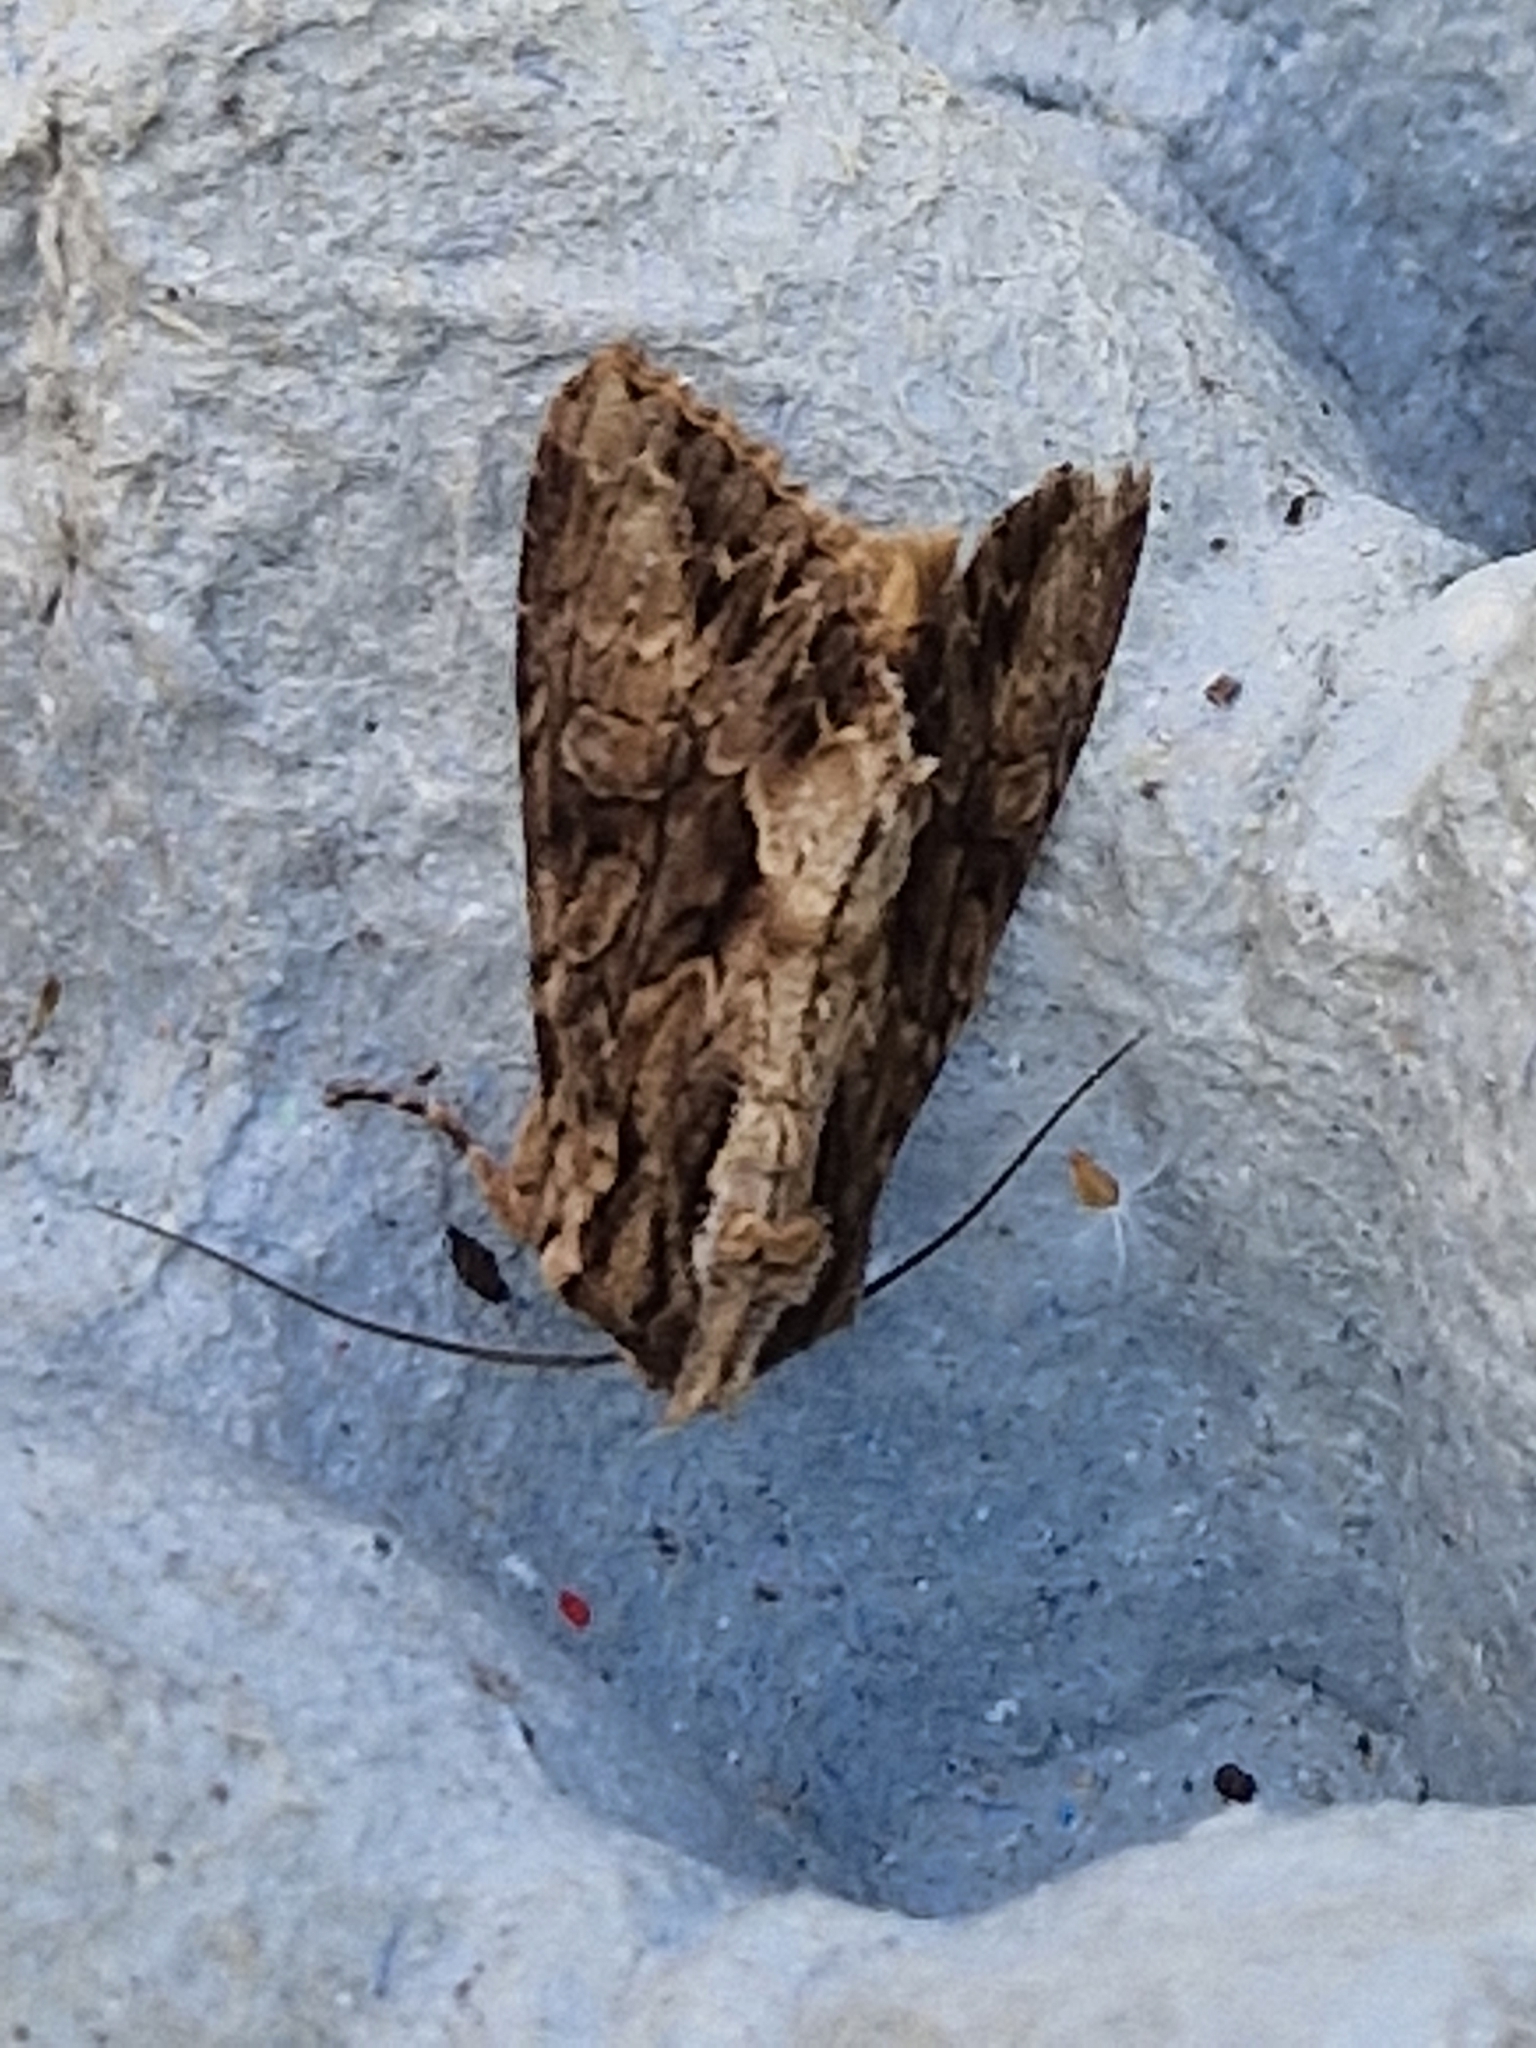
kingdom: Animalia
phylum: Arthropoda
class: Insecta
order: Lepidoptera
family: Noctuidae
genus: Apamea
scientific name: Apamea monoglypha
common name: Dark arches
